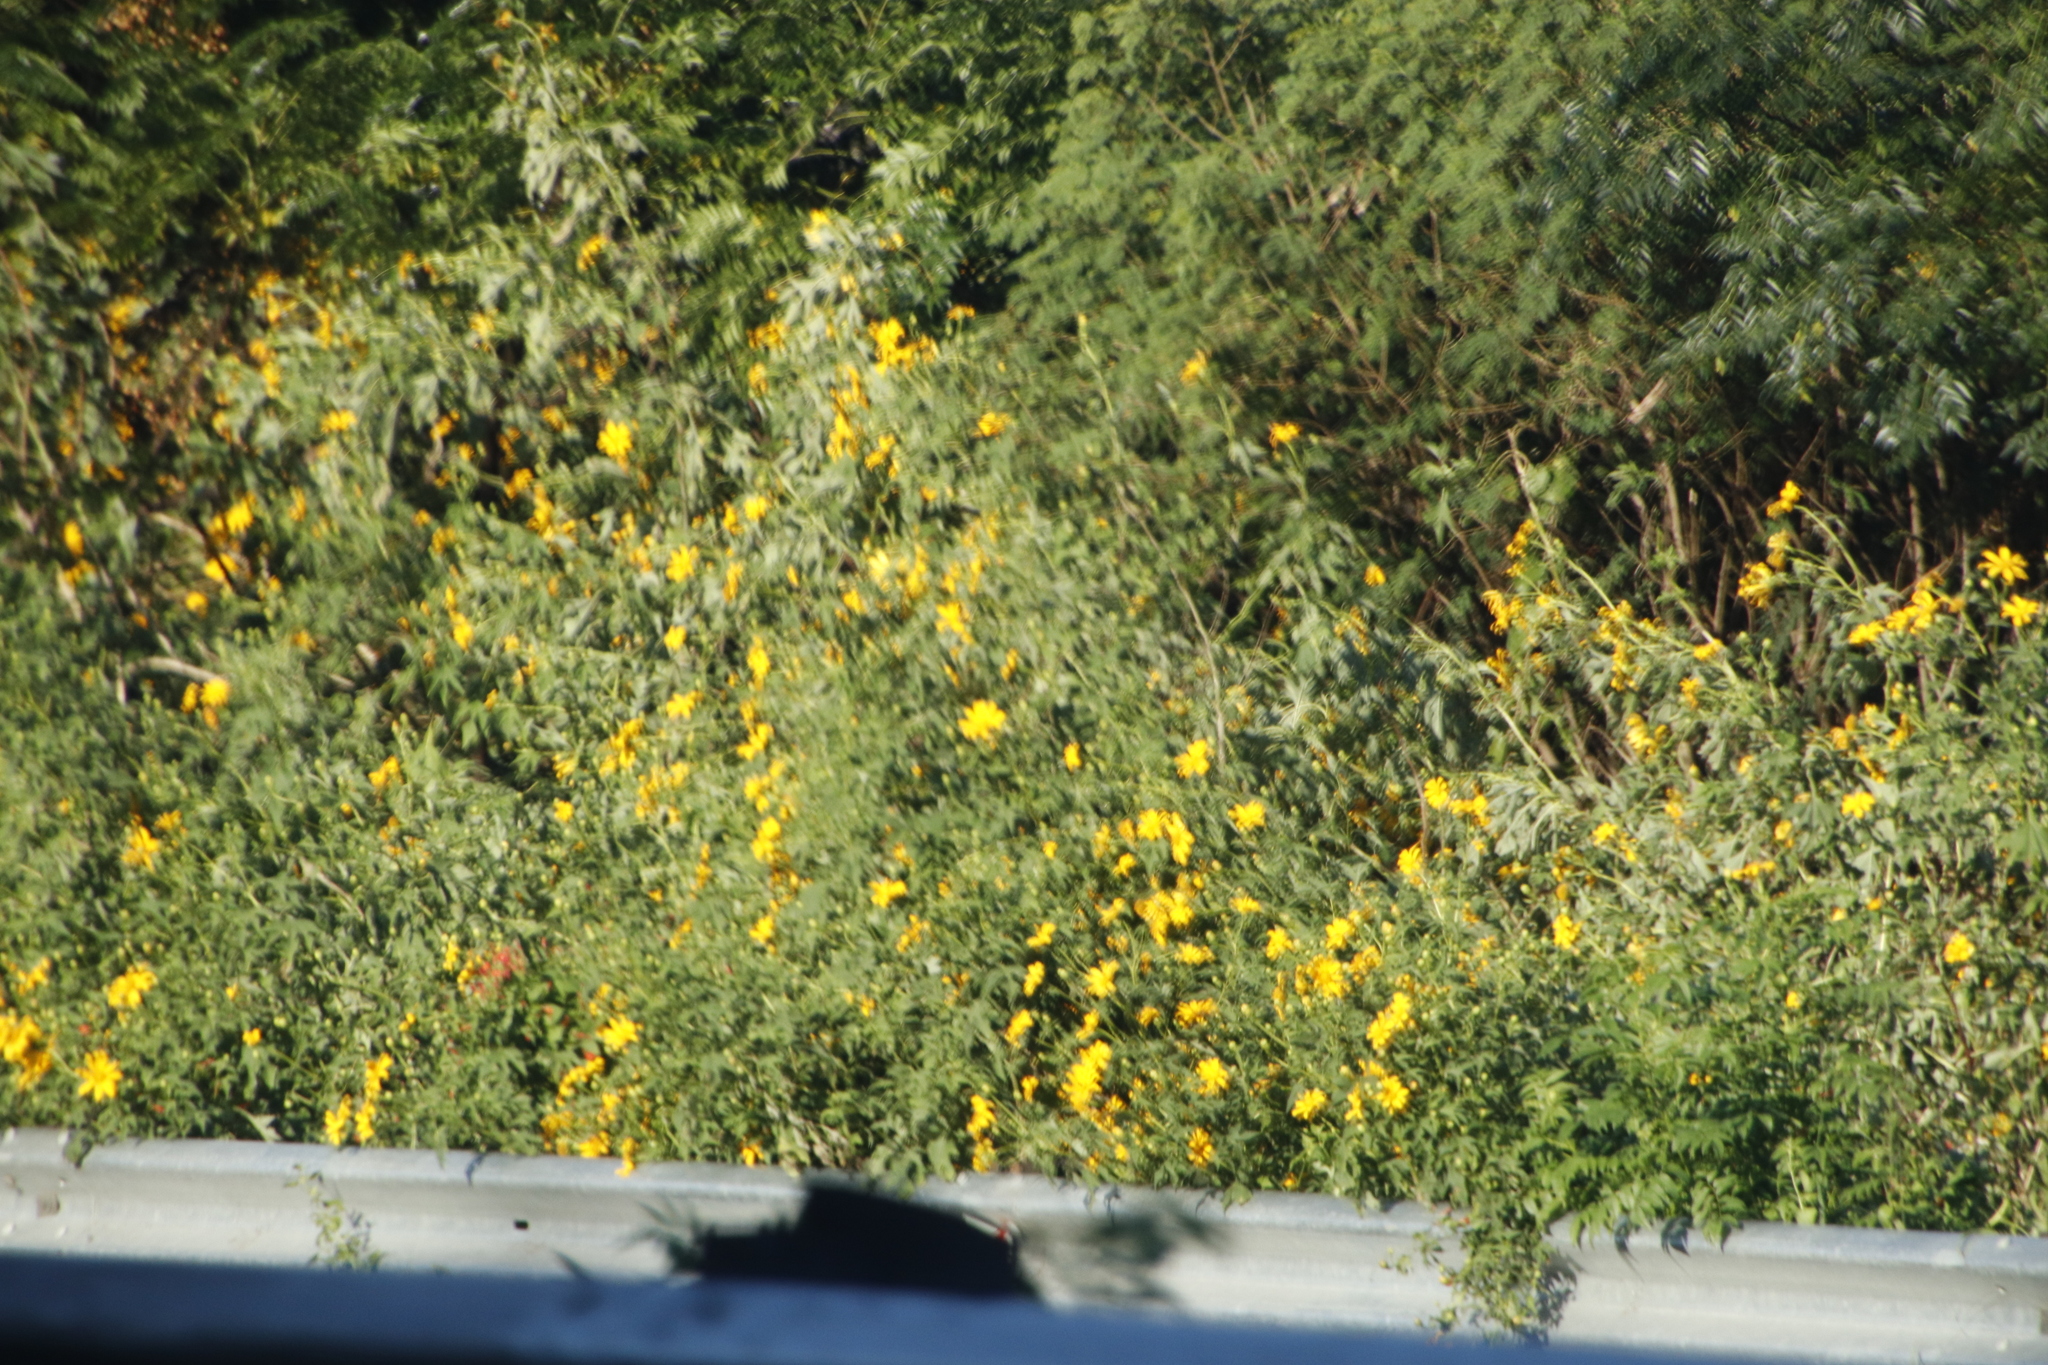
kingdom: Plantae
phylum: Tracheophyta
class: Magnoliopsida
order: Asterales
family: Asteraceae
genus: Tithonia
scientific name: Tithonia diversifolia
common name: Tree marigold
